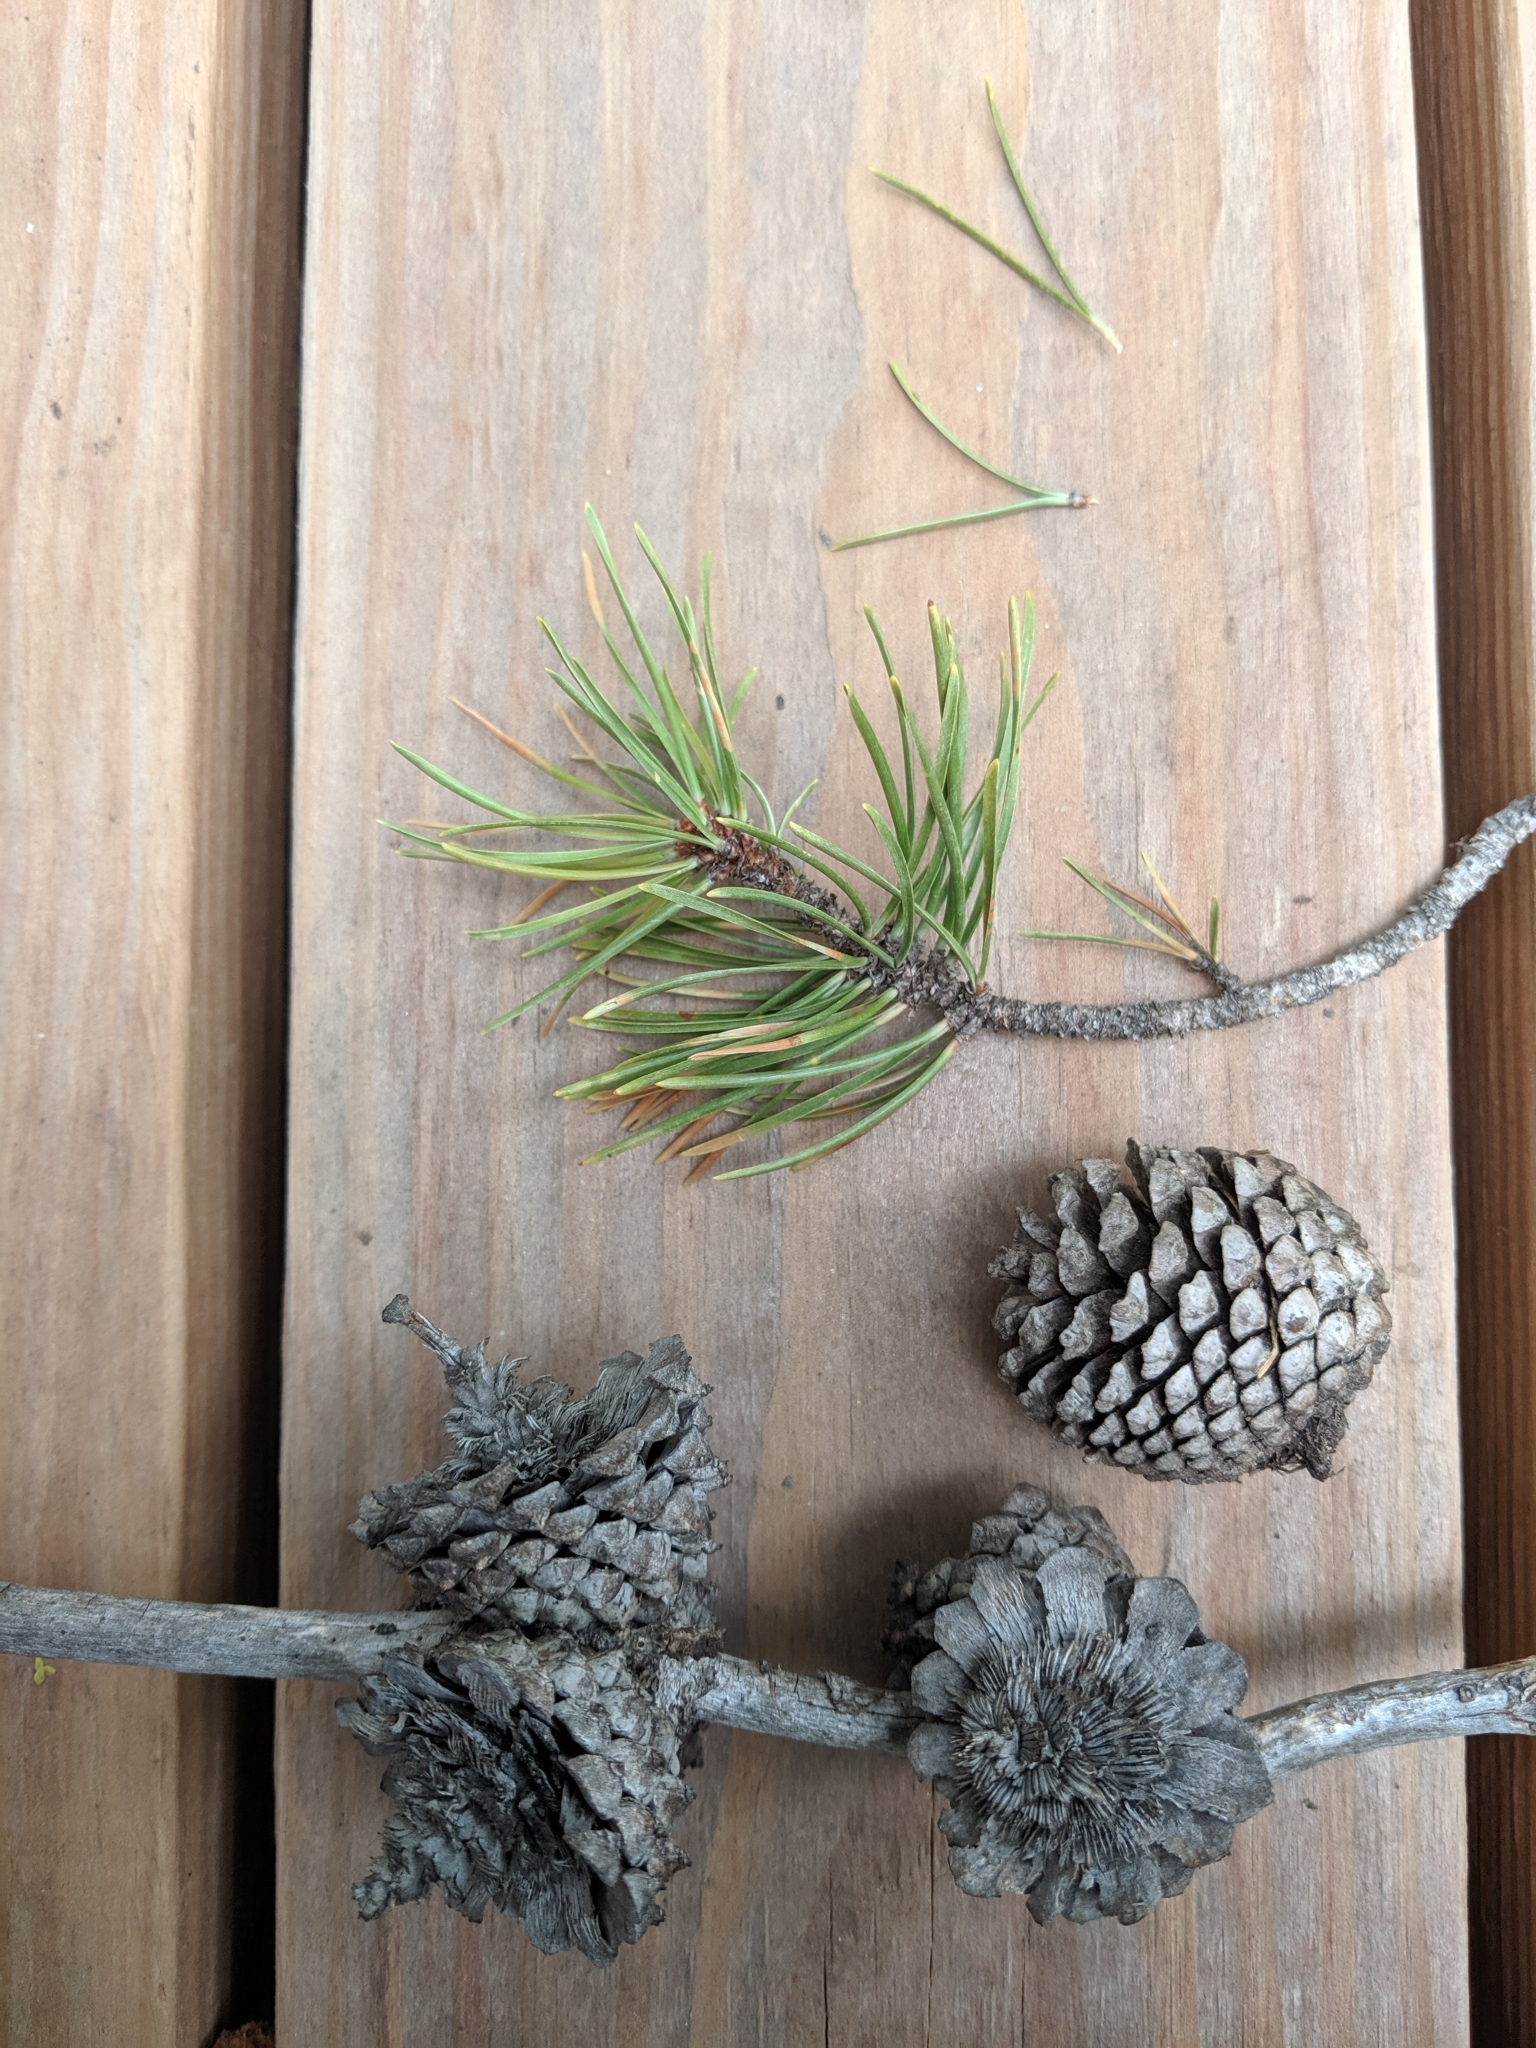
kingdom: Plantae
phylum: Tracheophyta
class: Pinopsida
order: Pinales
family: Pinaceae
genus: Pinus
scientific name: Pinus contorta
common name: Lodgepole pine
